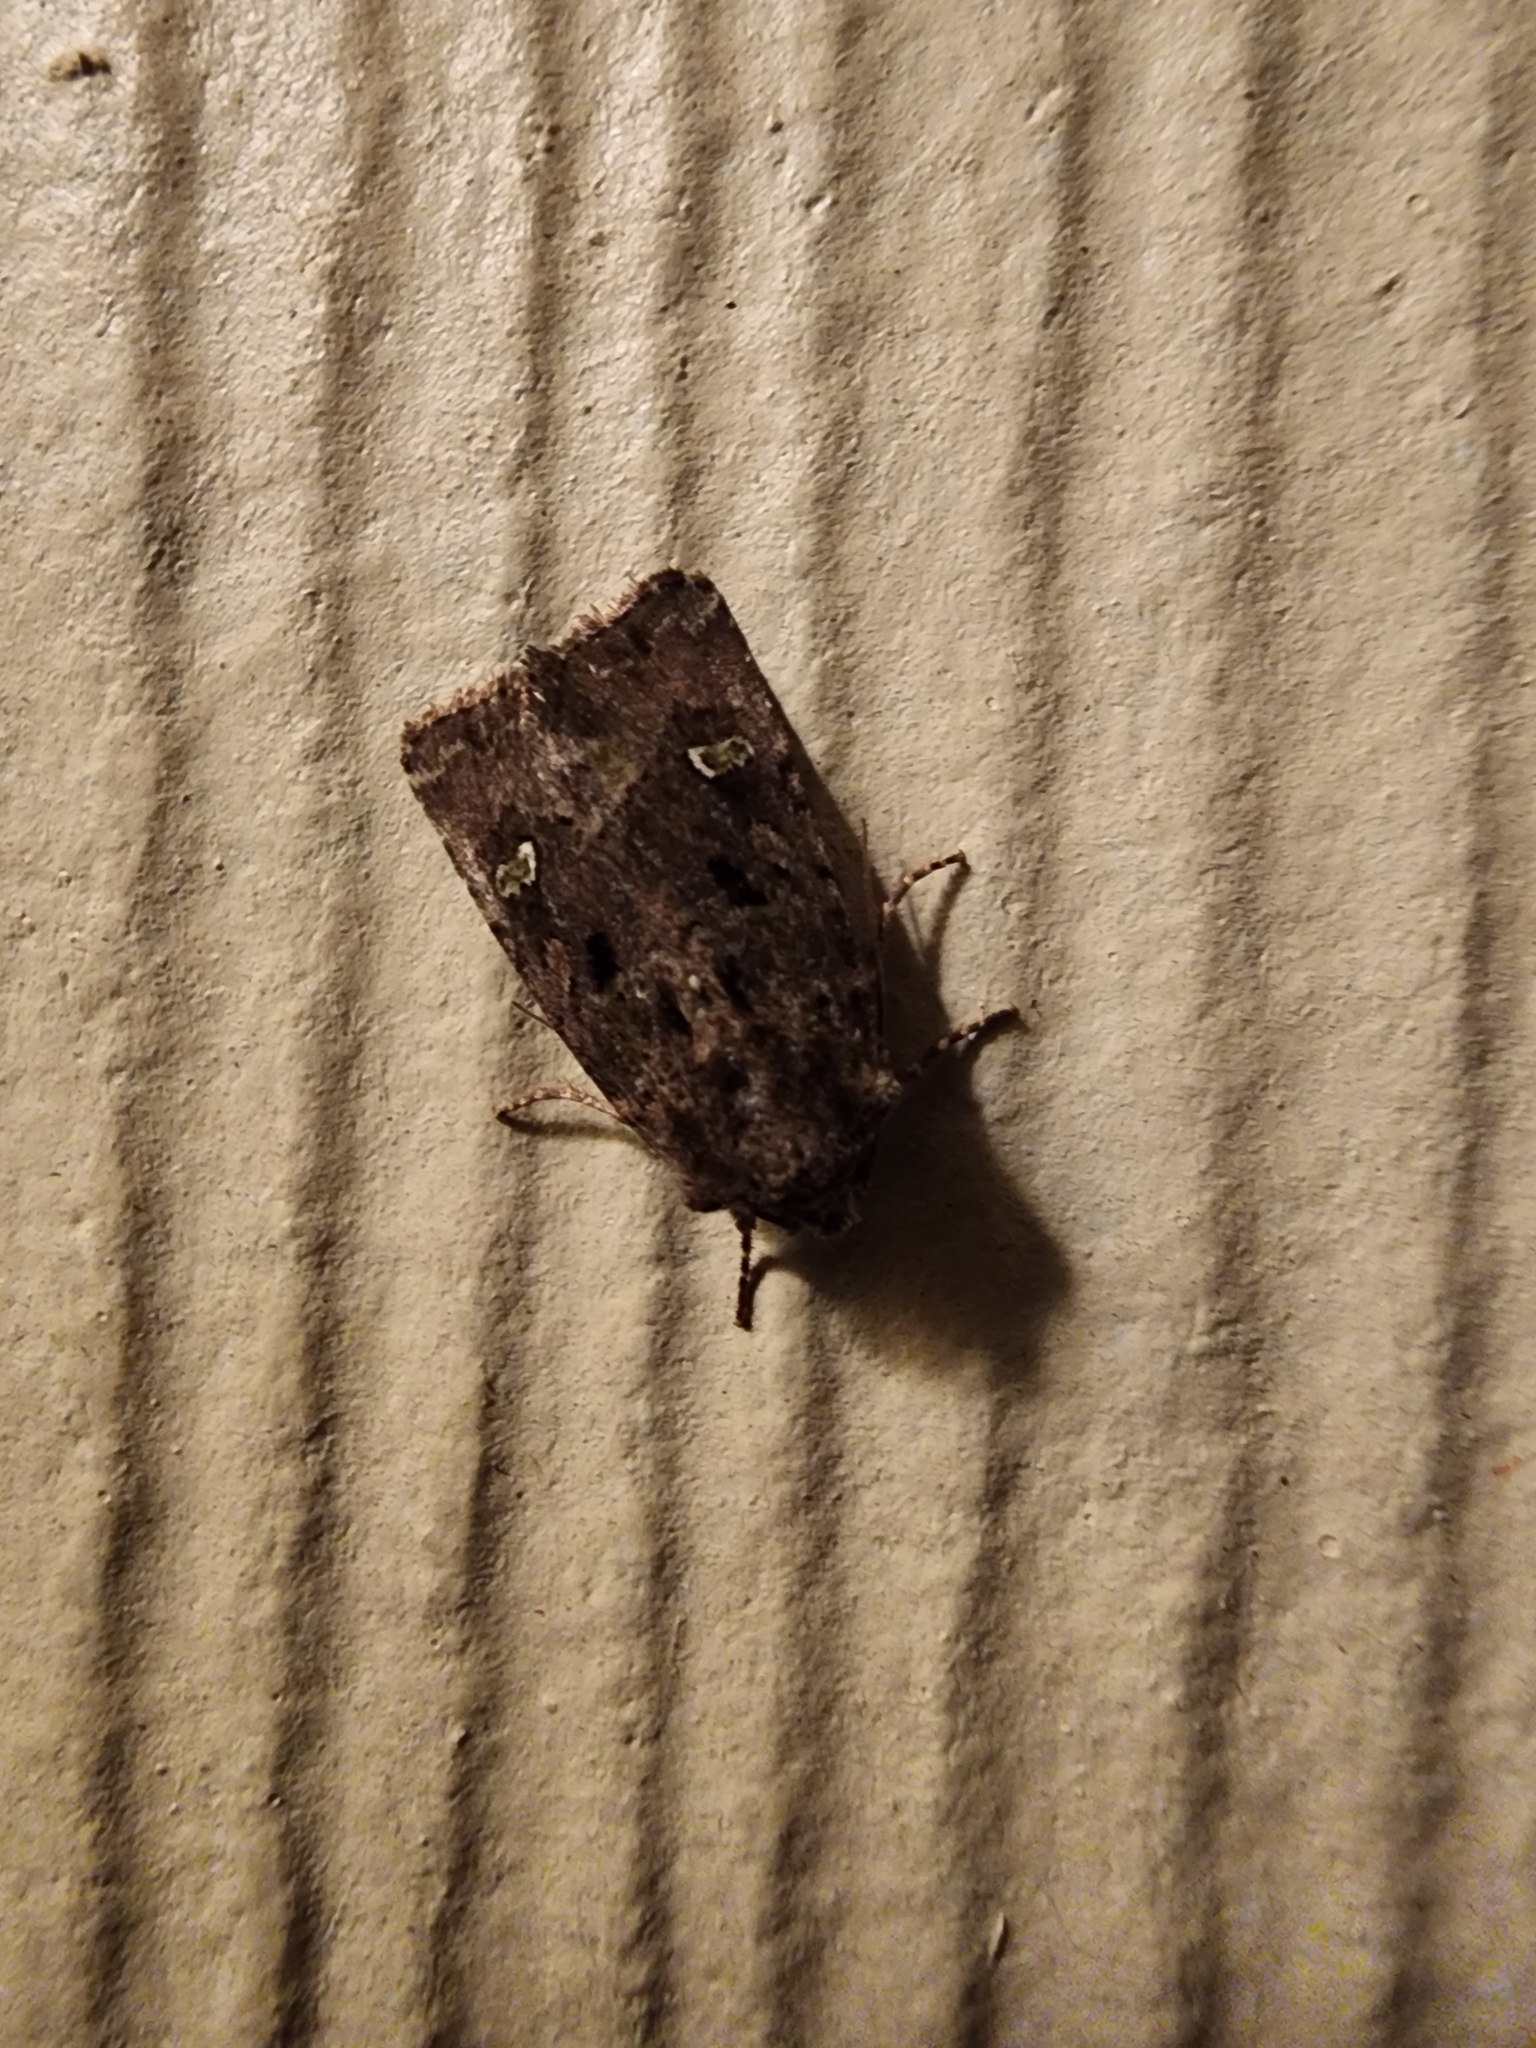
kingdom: Animalia
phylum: Arthropoda
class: Insecta
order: Lepidoptera
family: Noctuidae
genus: Lacinipolia
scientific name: Lacinipolia renigera
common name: Kidney-spotted minor
